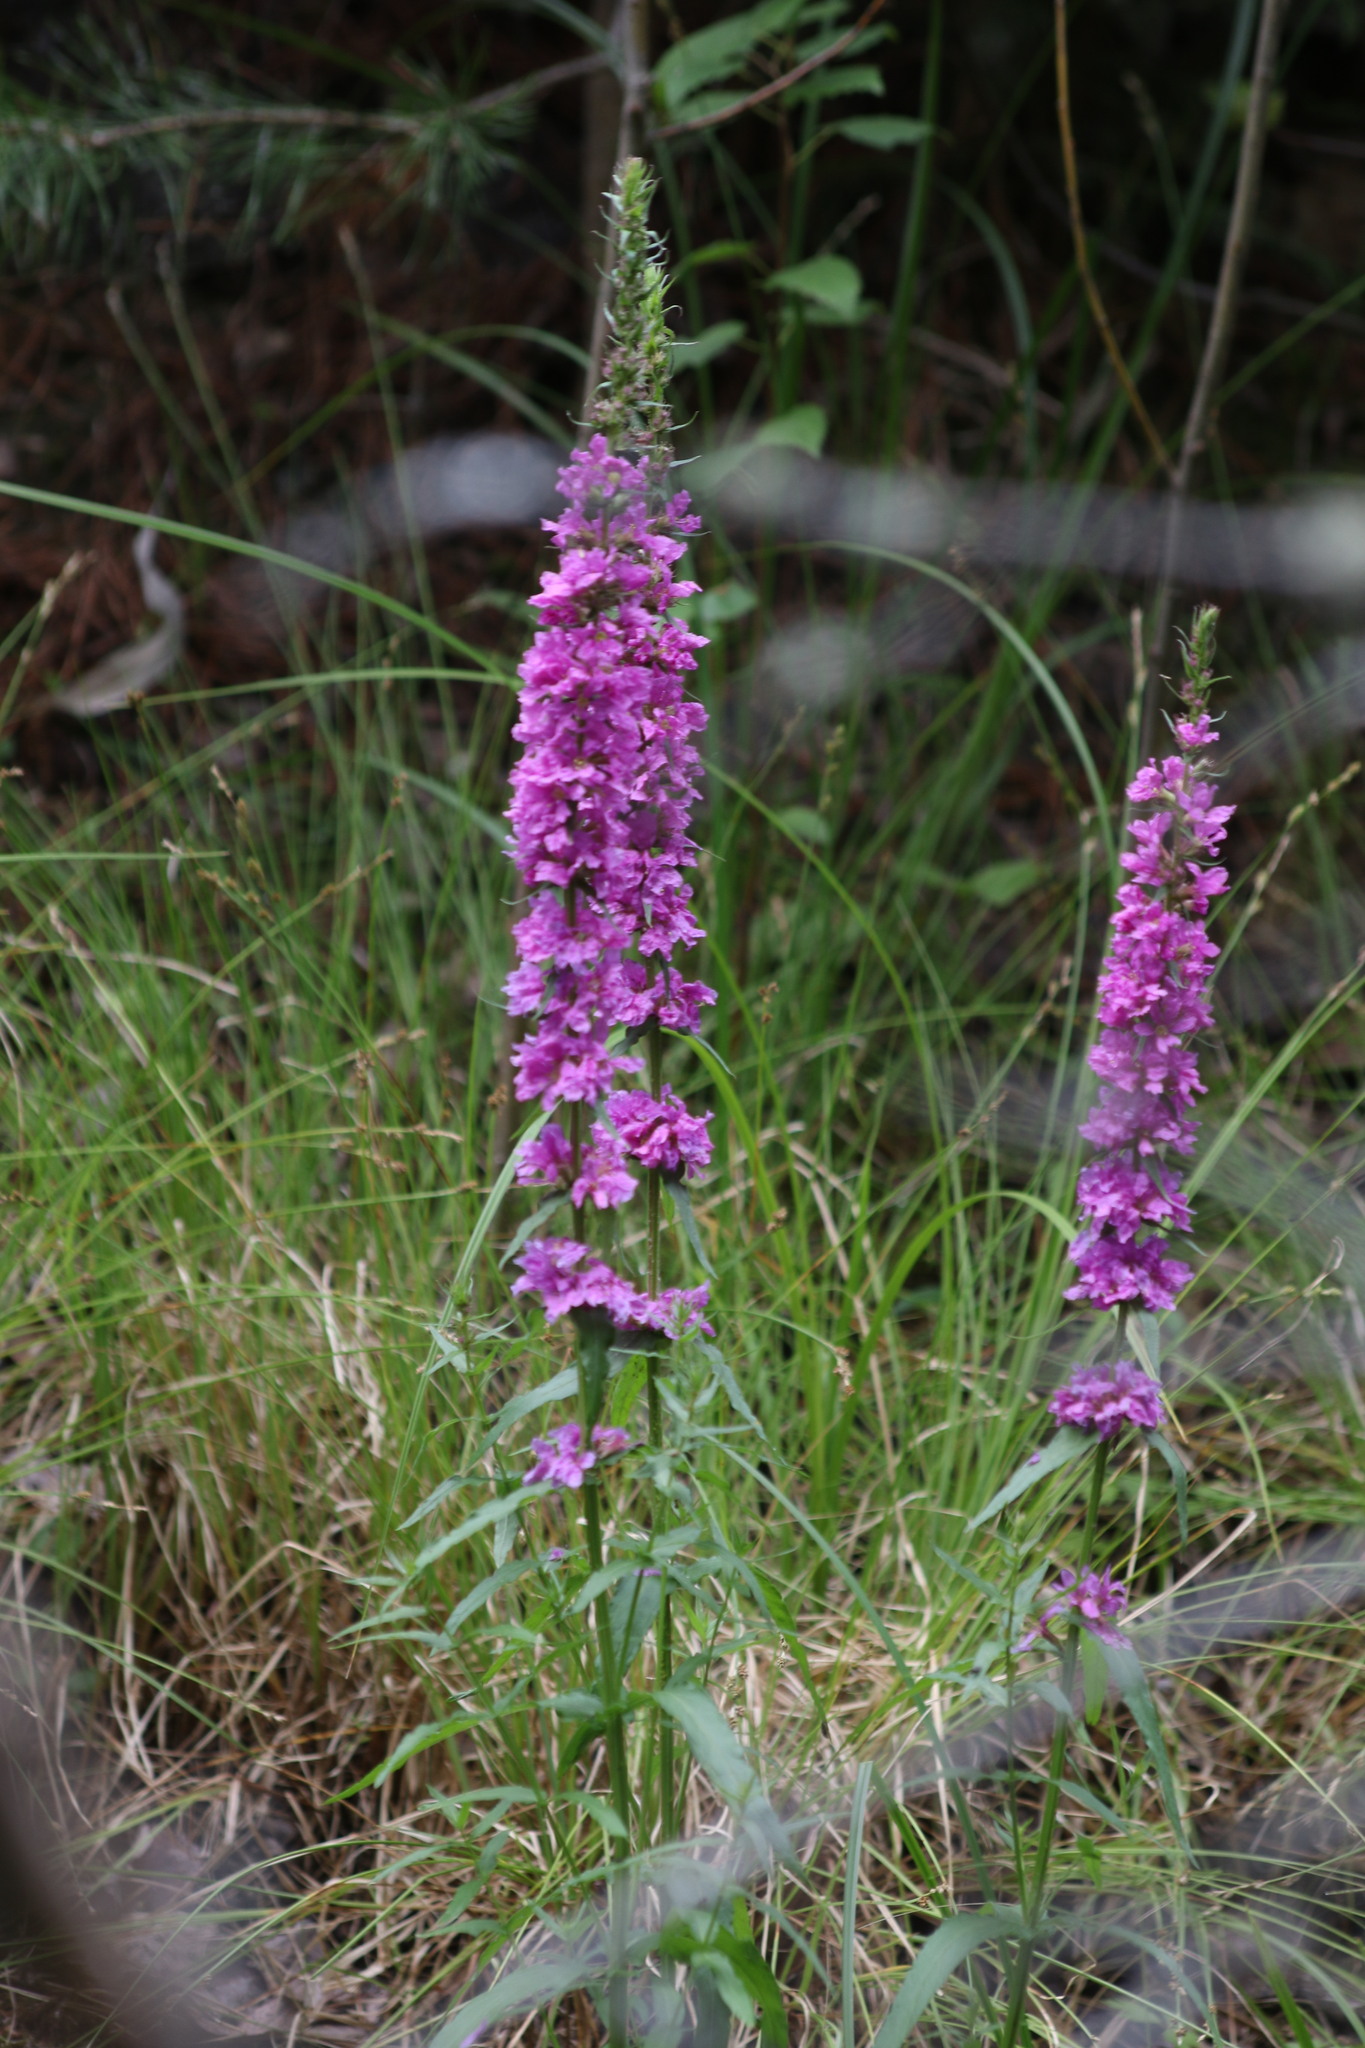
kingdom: Plantae
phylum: Tracheophyta
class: Magnoliopsida
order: Myrtales
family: Lythraceae
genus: Lythrum
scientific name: Lythrum salicaria
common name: Purple loosestrife
